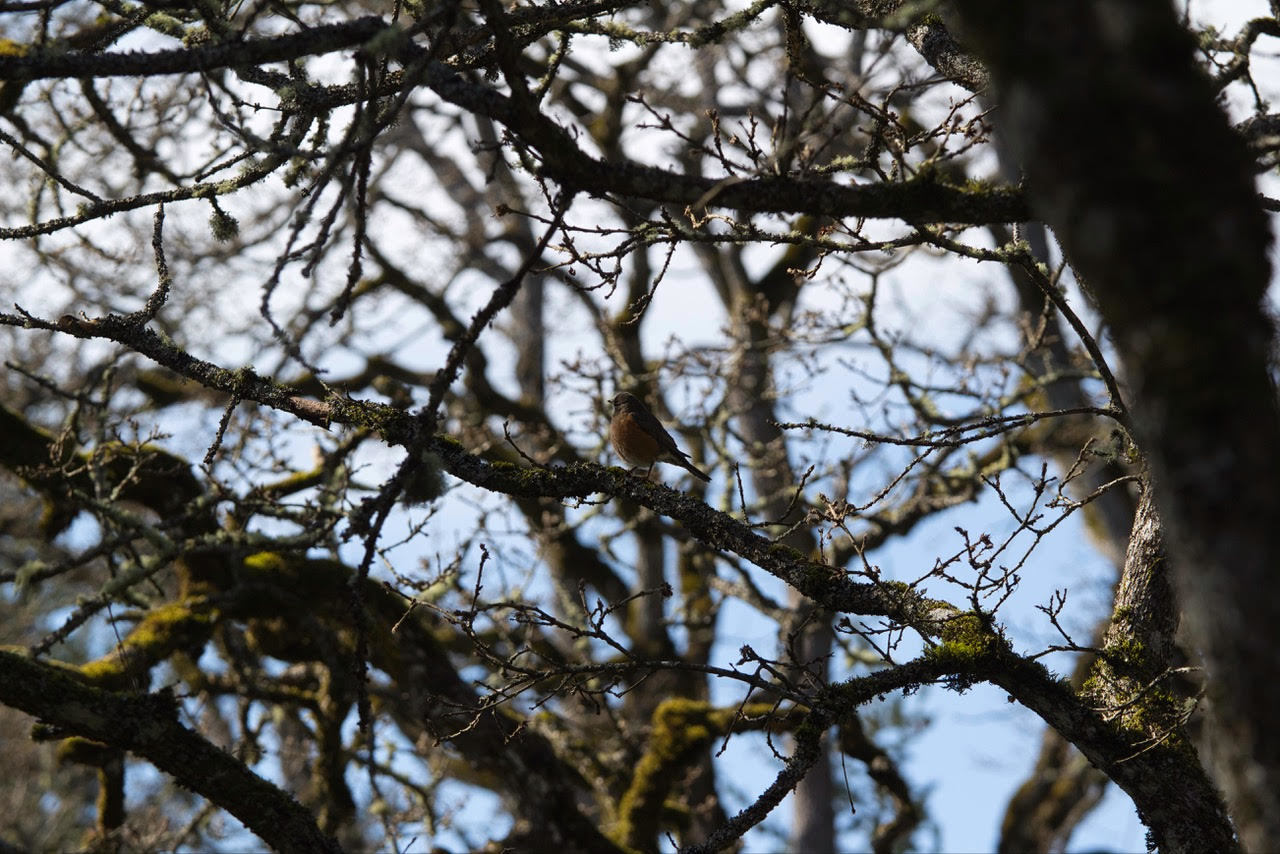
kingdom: Animalia
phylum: Chordata
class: Aves
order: Passeriformes
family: Turdidae
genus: Turdus
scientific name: Turdus migratorius
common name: American robin
